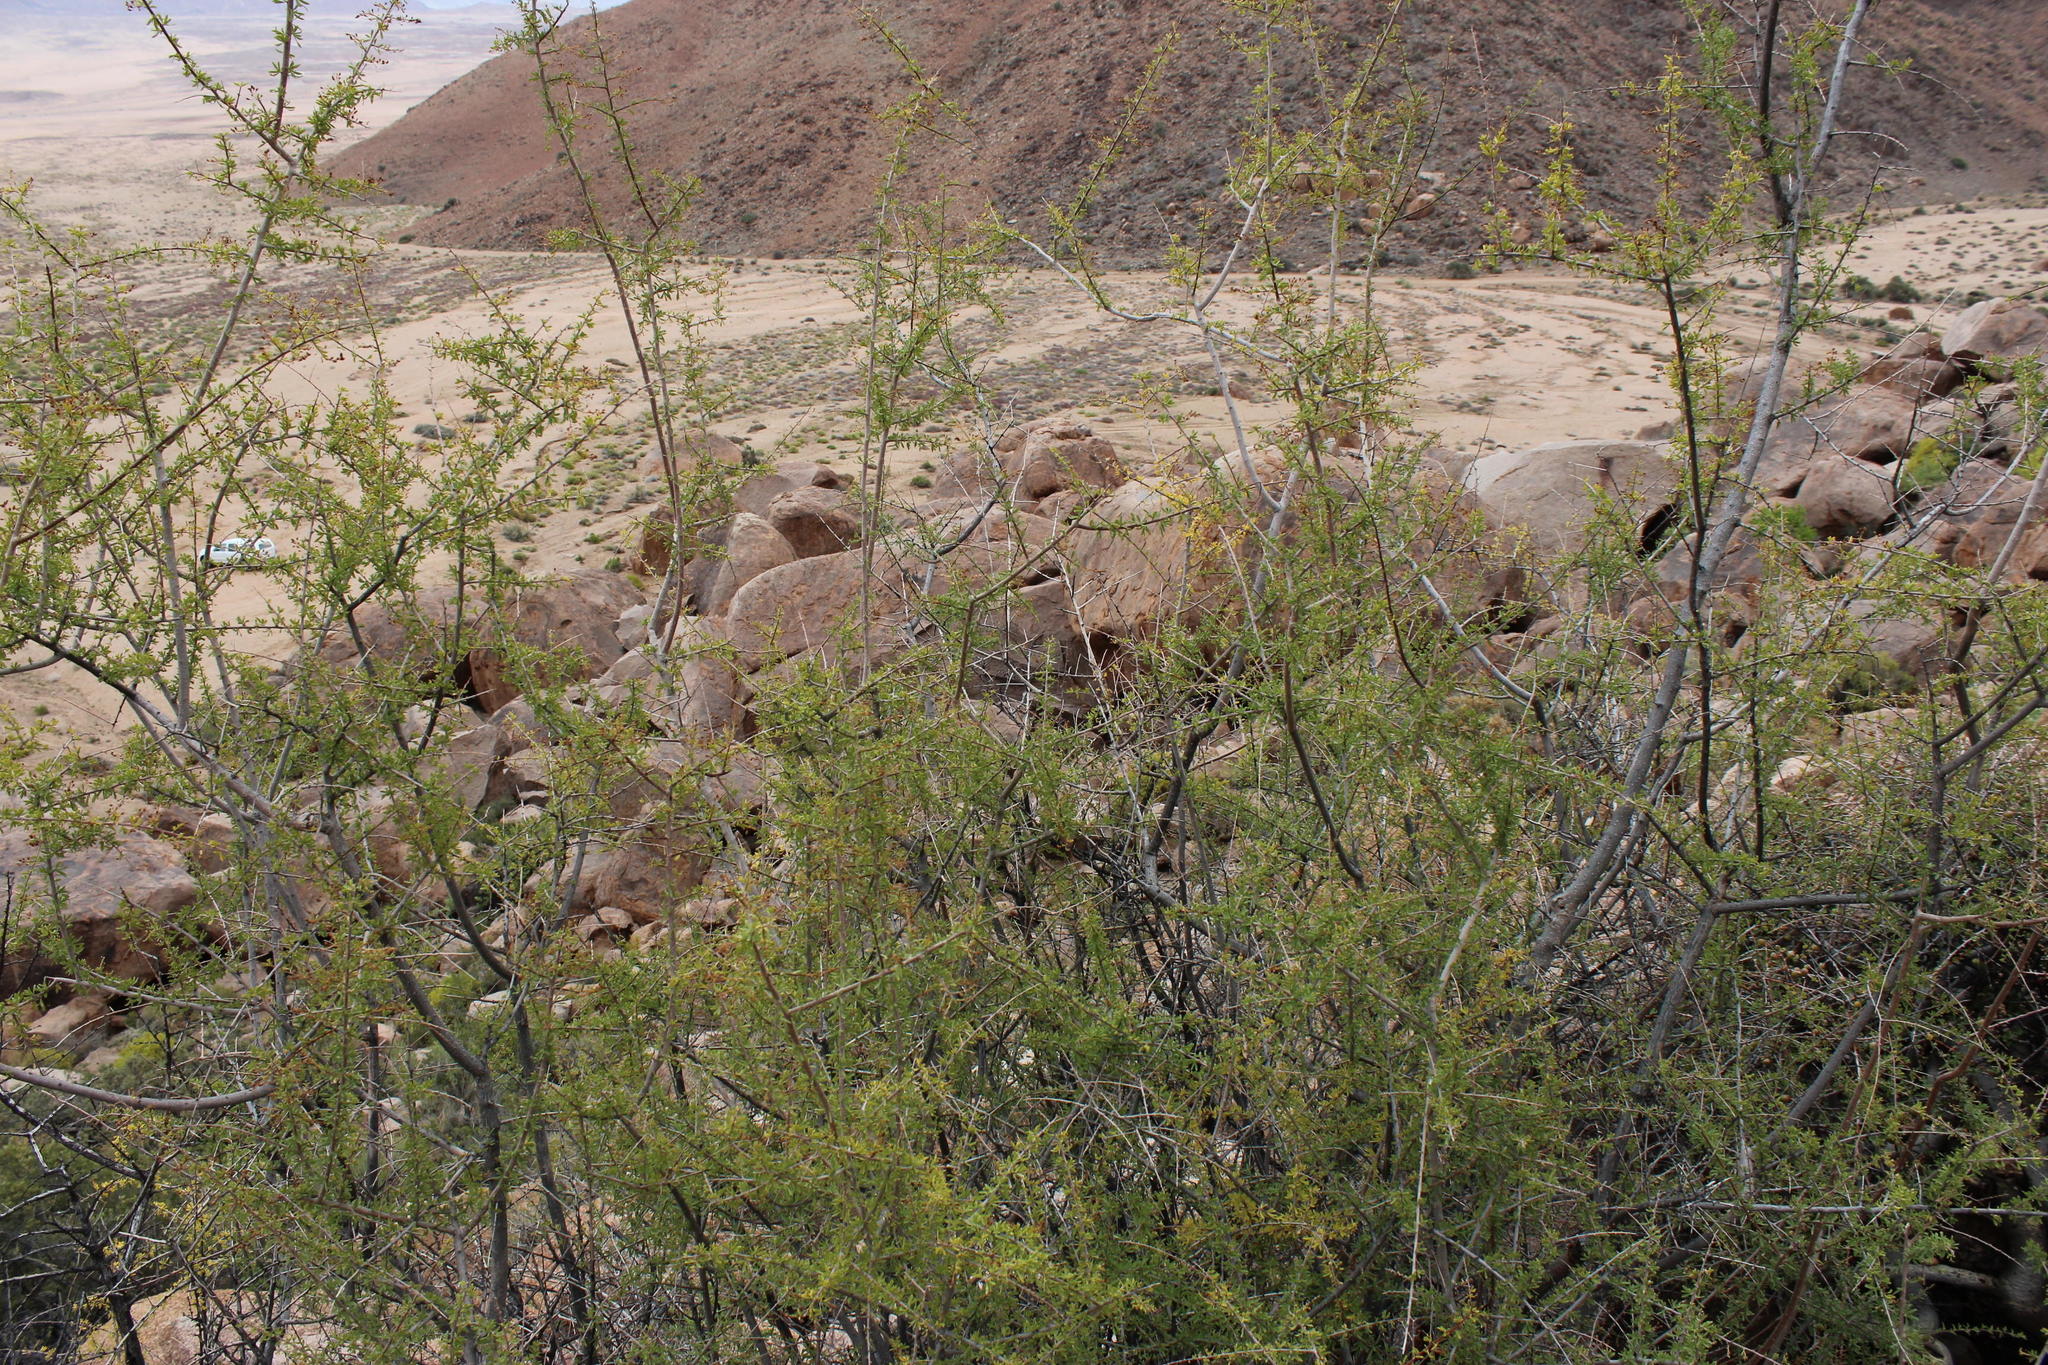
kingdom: Plantae
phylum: Tracheophyta
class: Magnoliopsida
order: Lamiales
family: Scrophulariaceae
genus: Antherothamnus
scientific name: Antherothamnus pearsonii
